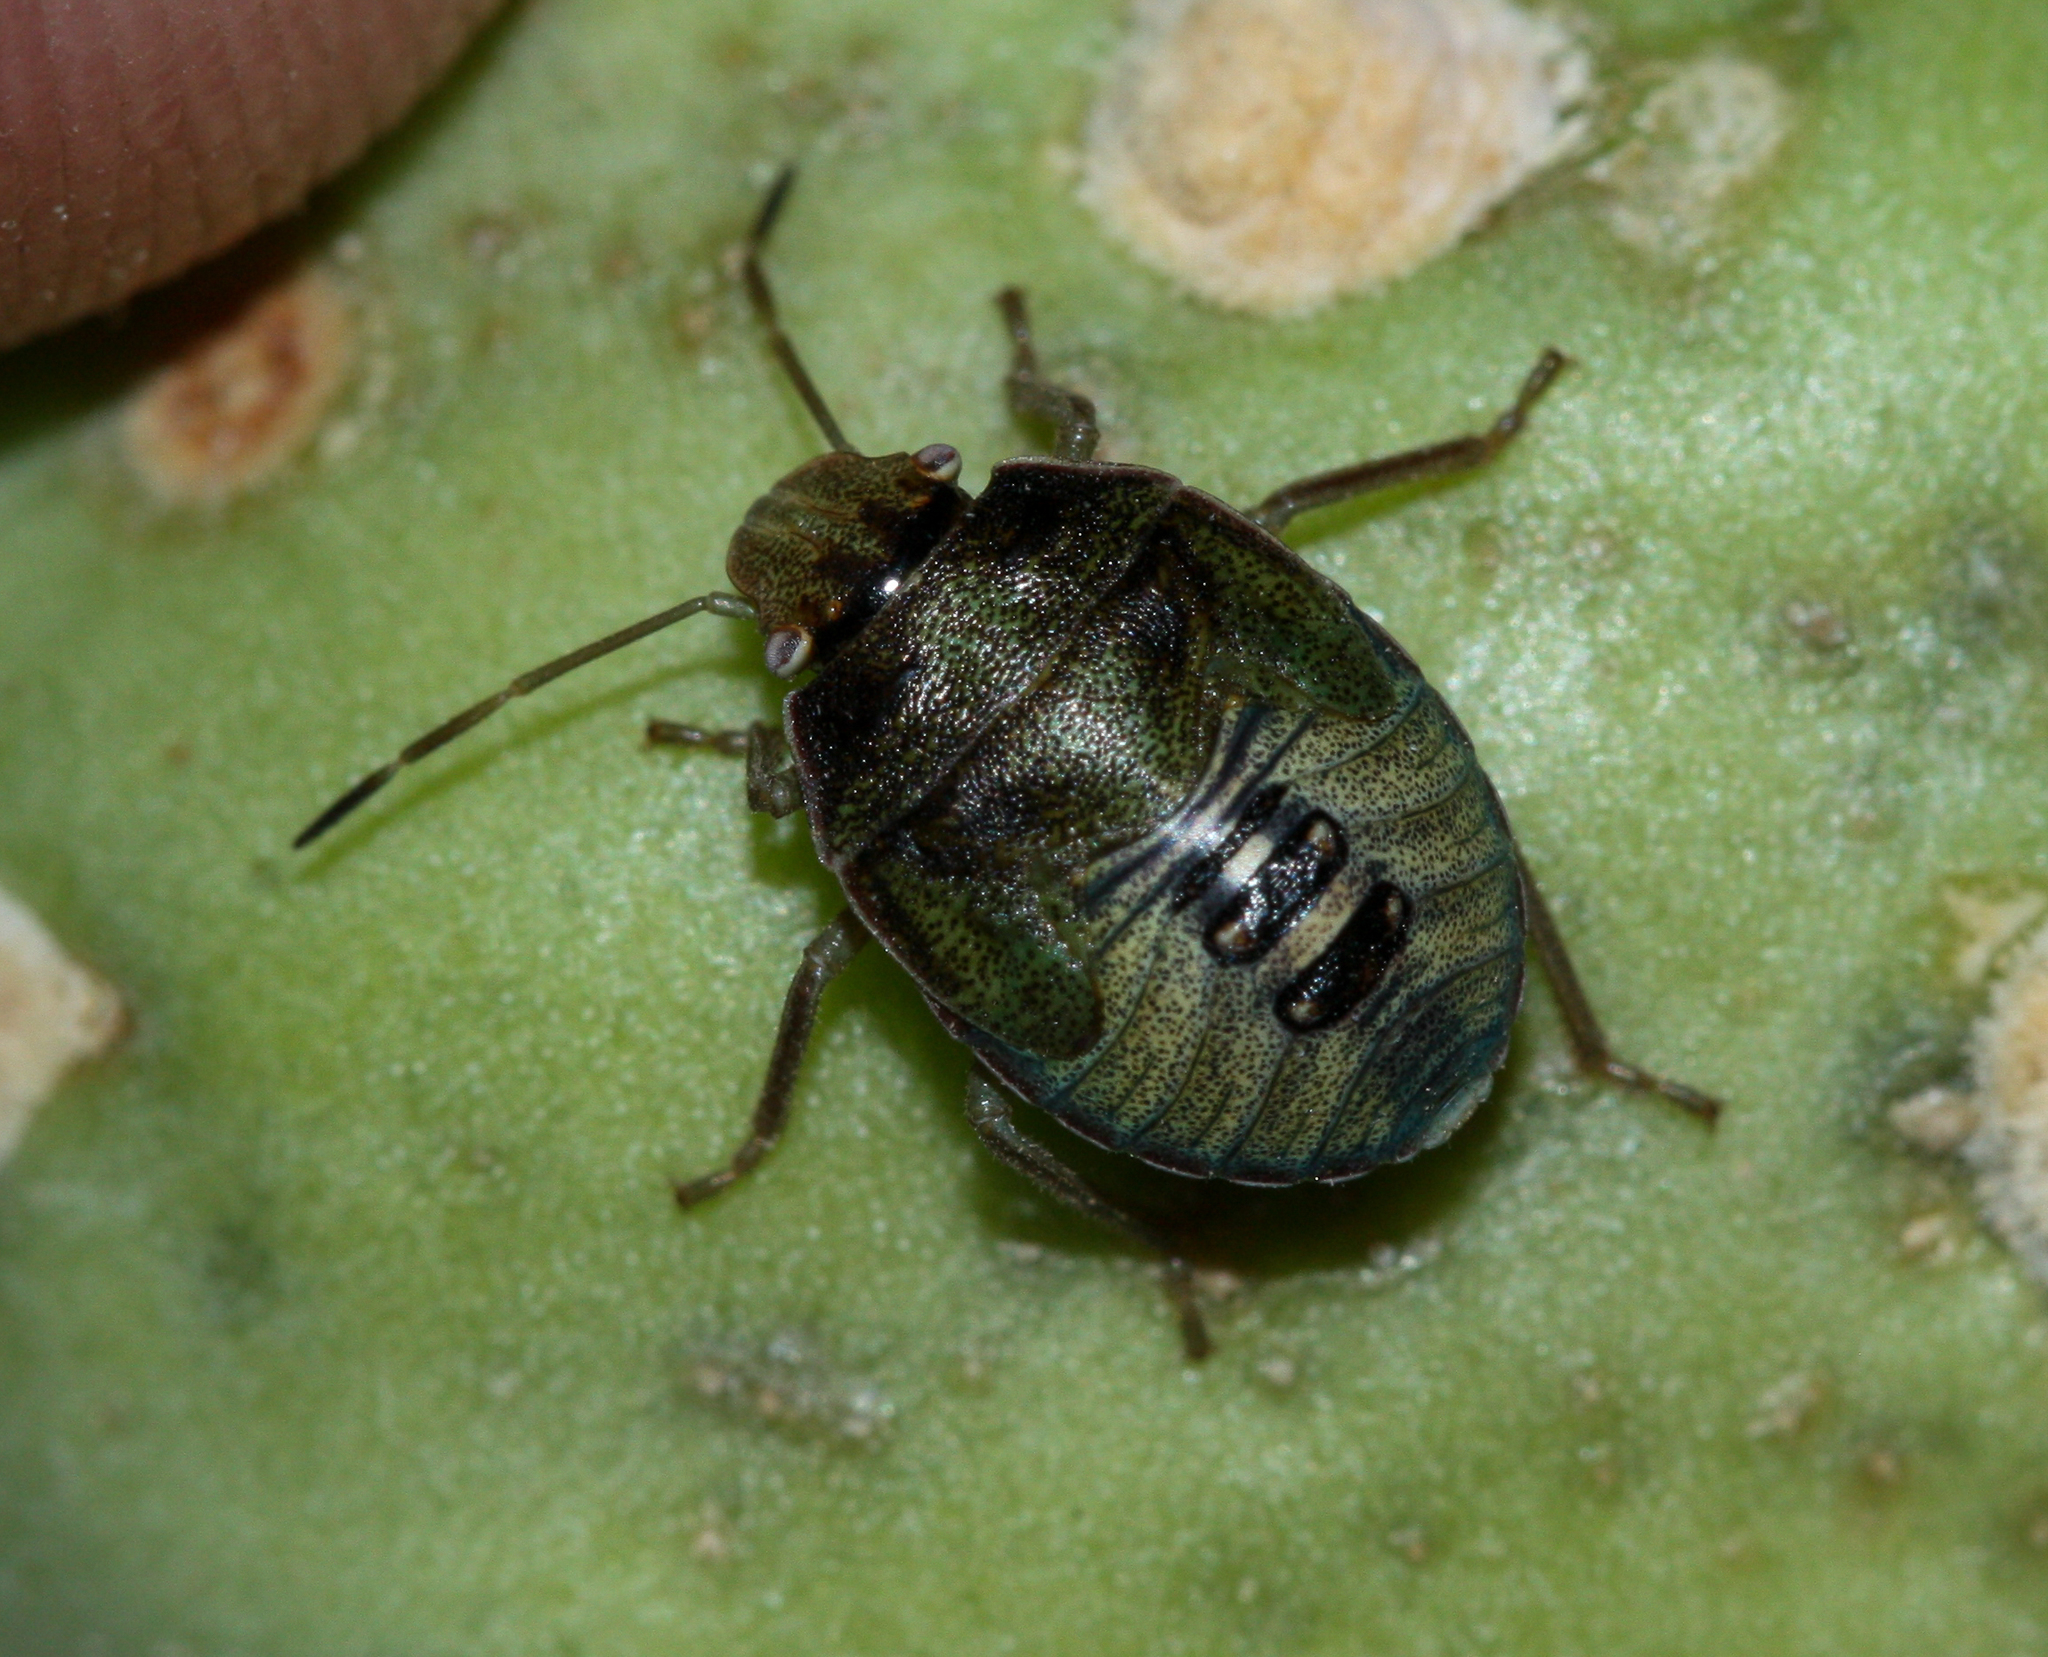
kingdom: Animalia
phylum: Arthropoda
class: Insecta
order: Hemiptera
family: Pentatomidae
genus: Chlorochroa
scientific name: Chlorochroa opuntiae
